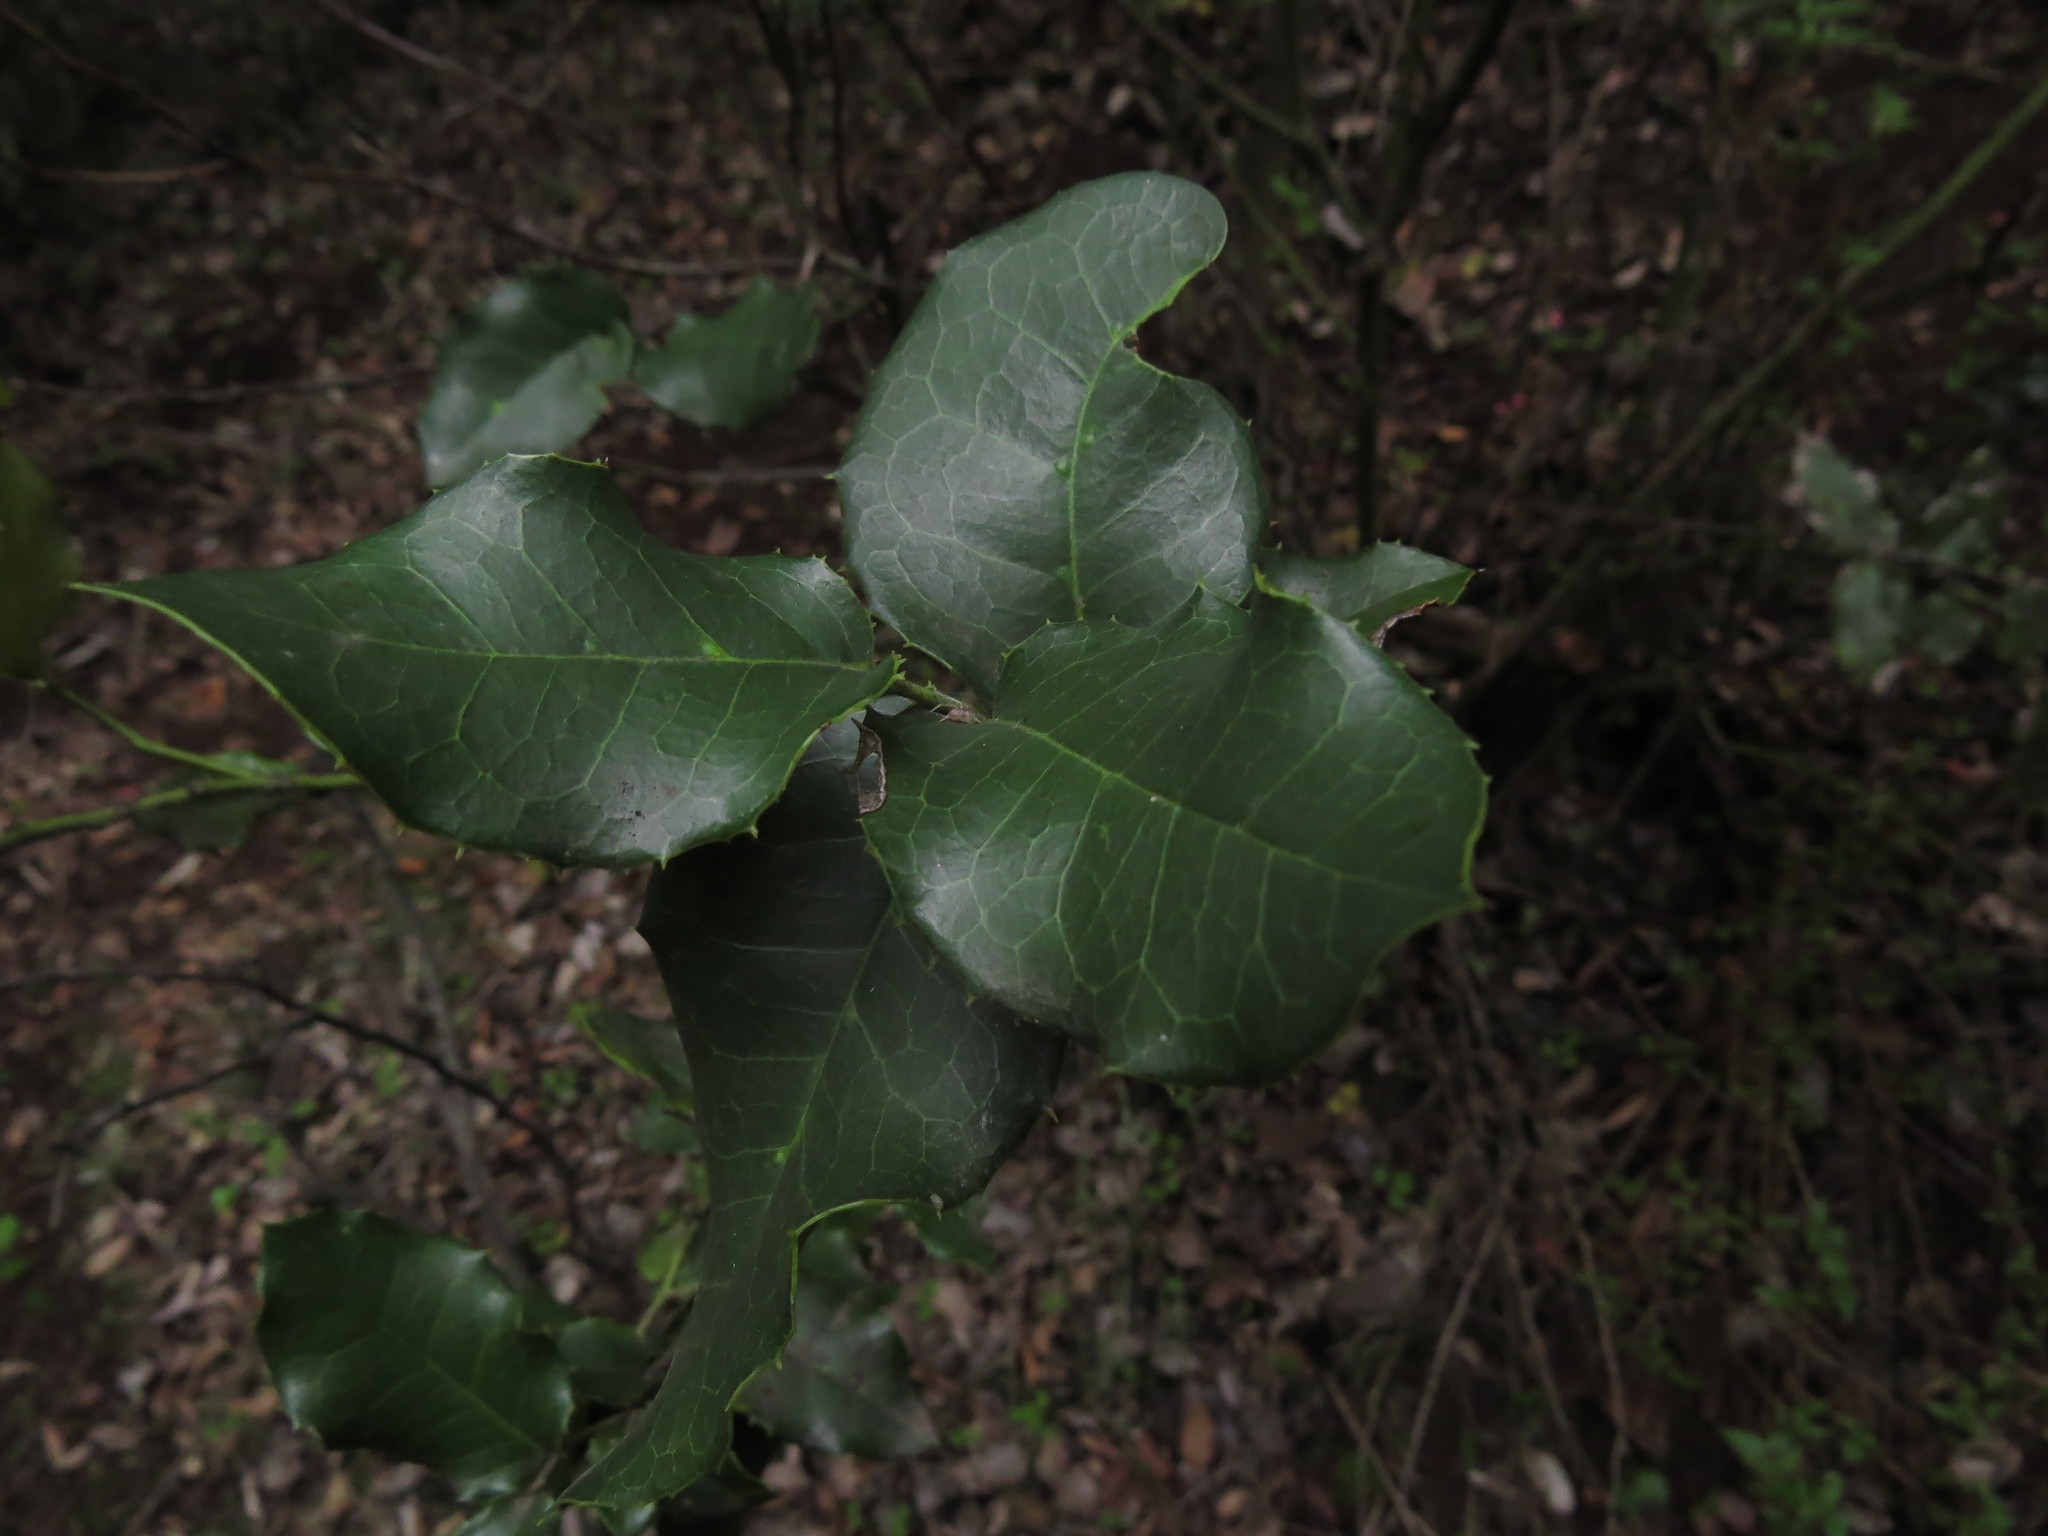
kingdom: Plantae
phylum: Tracheophyta
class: Magnoliopsida
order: Cardiopteridales
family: Cardiopteridaceae
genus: Citronella
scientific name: Citronella mucronata
